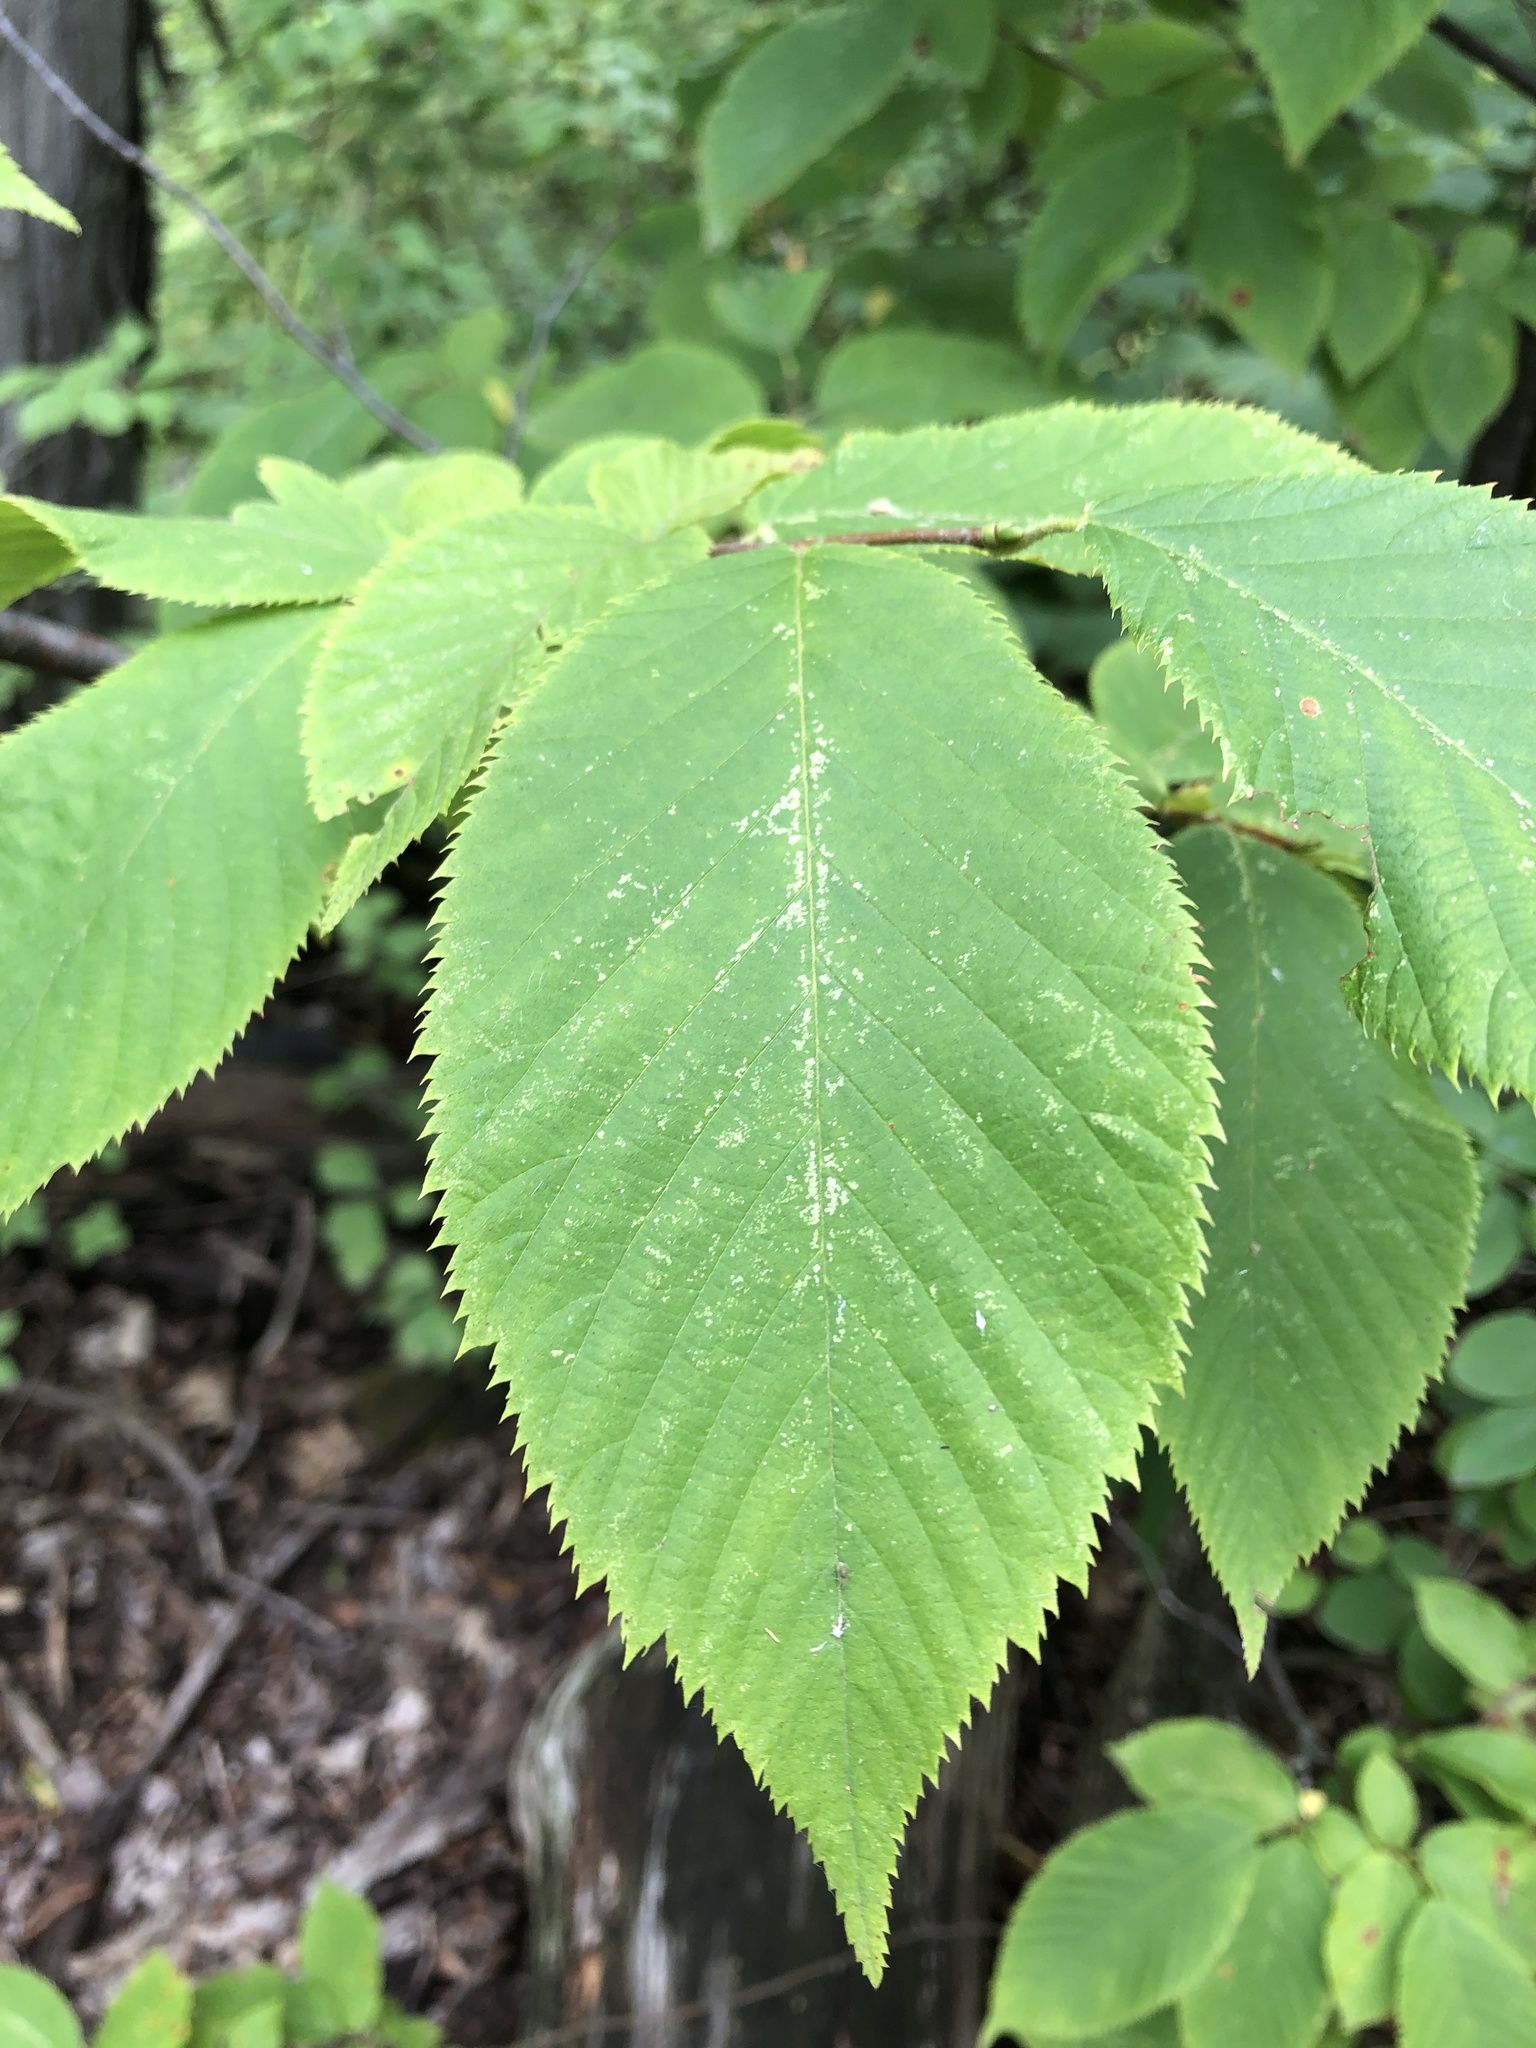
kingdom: Plantae
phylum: Tracheophyta
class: Magnoliopsida
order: Fagales
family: Betulaceae
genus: Ostrya
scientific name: Ostrya virginiana
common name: Ironwood
